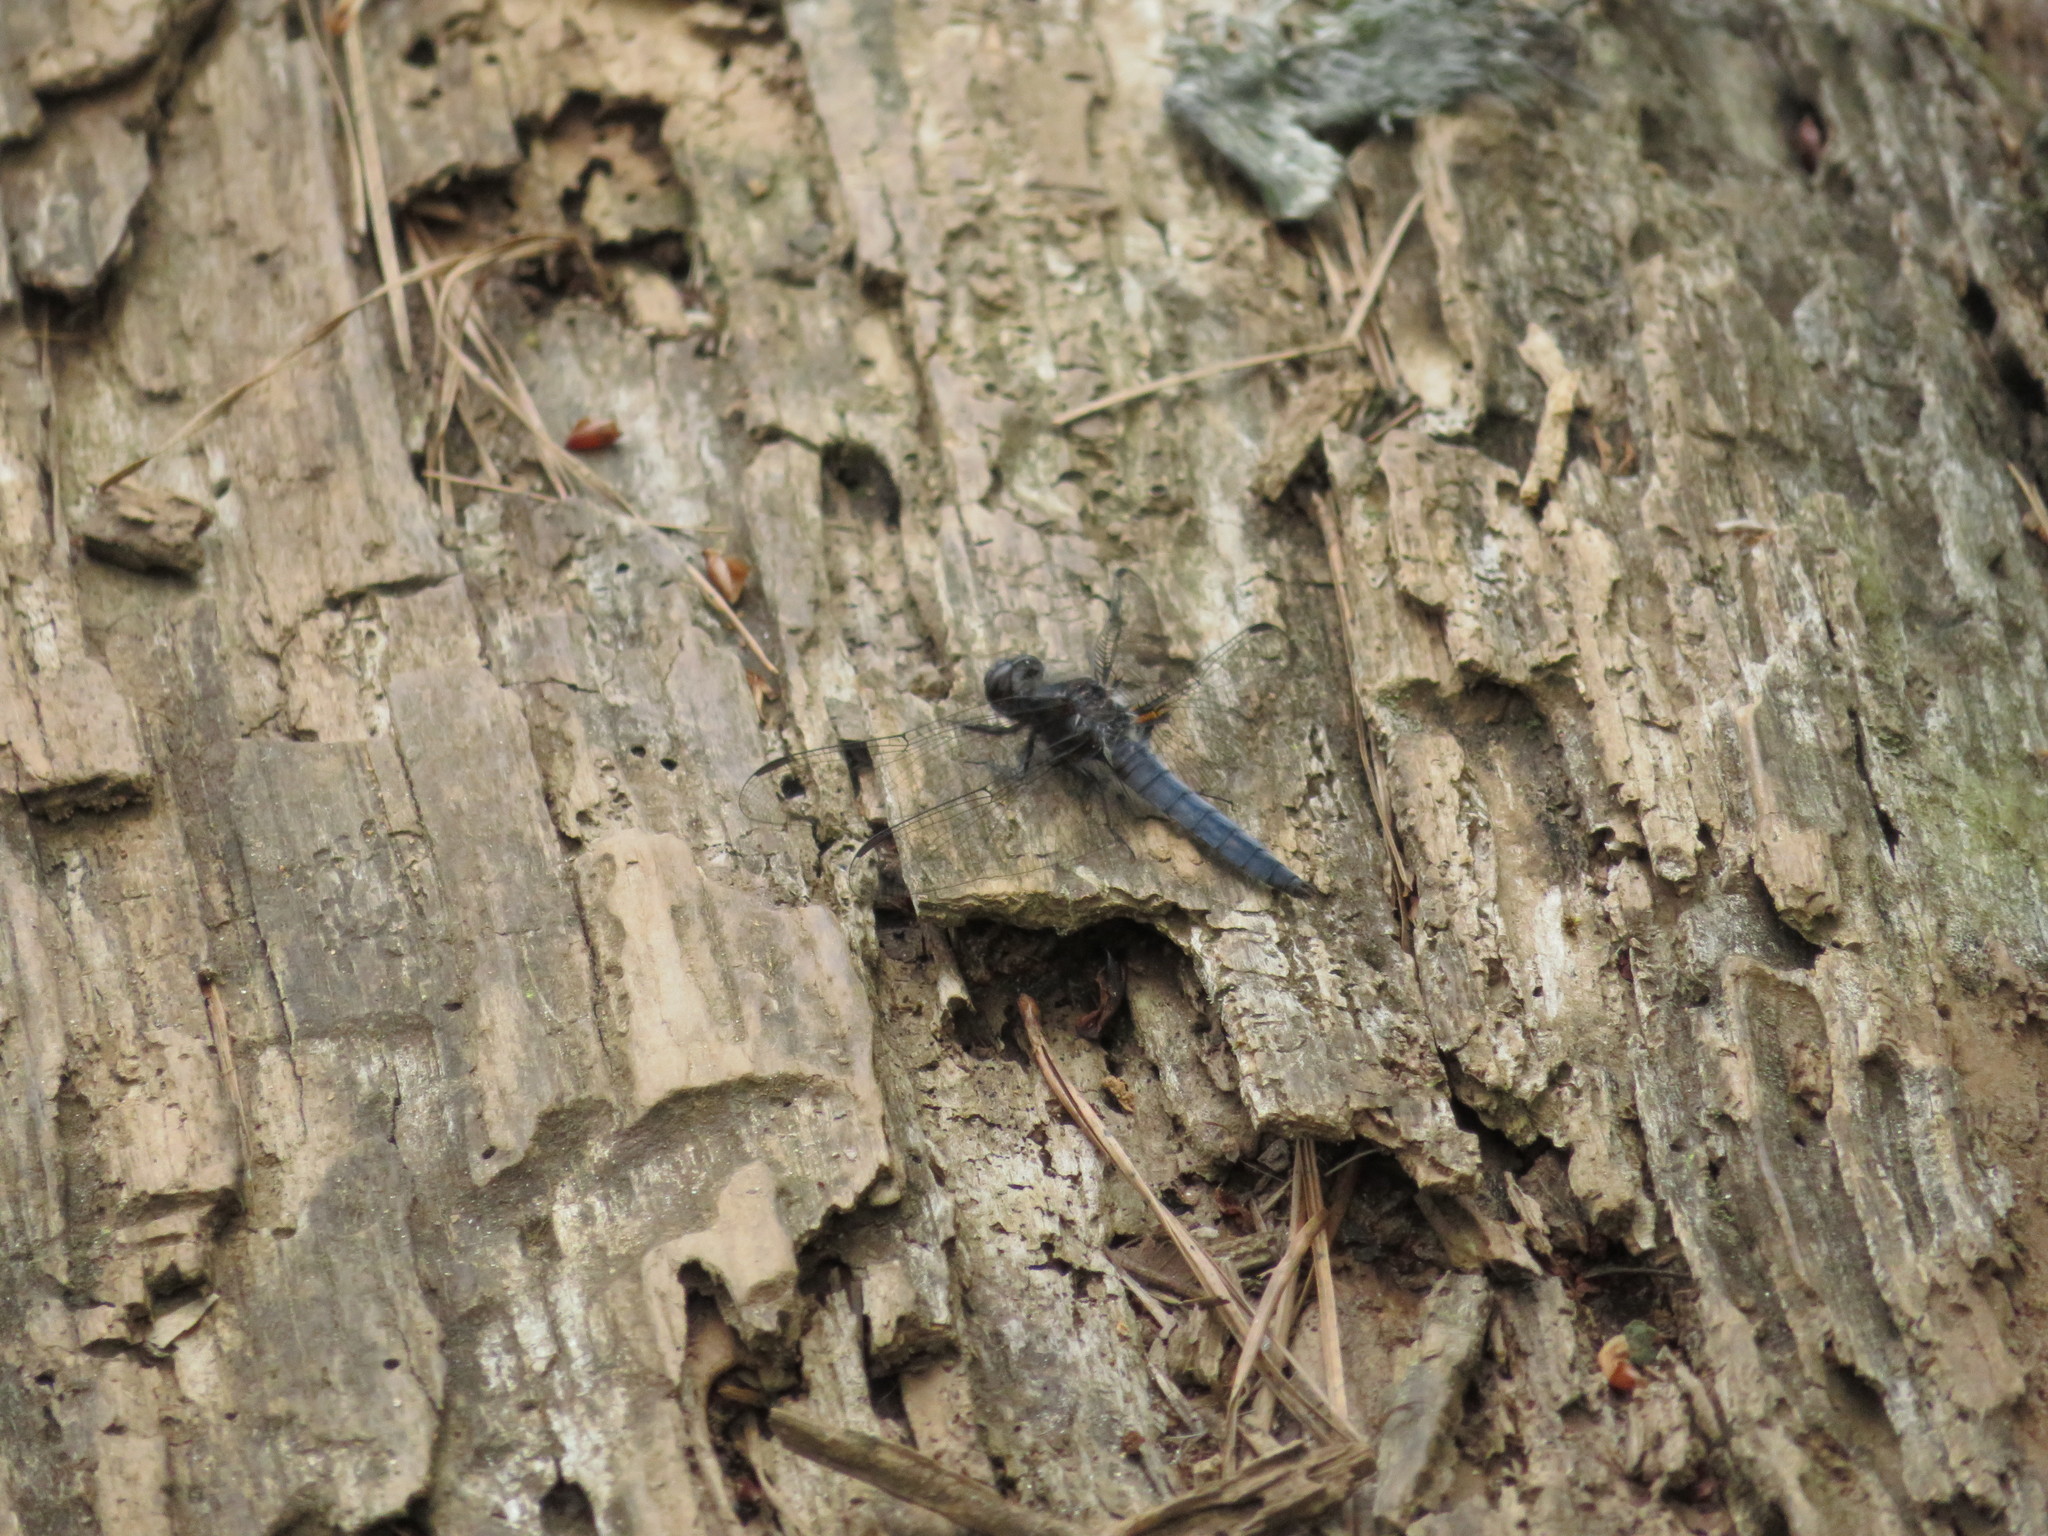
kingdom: Animalia
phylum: Arthropoda
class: Insecta
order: Odonata
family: Libellulidae
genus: Ladona
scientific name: Ladona deplanata
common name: Blue corporal
